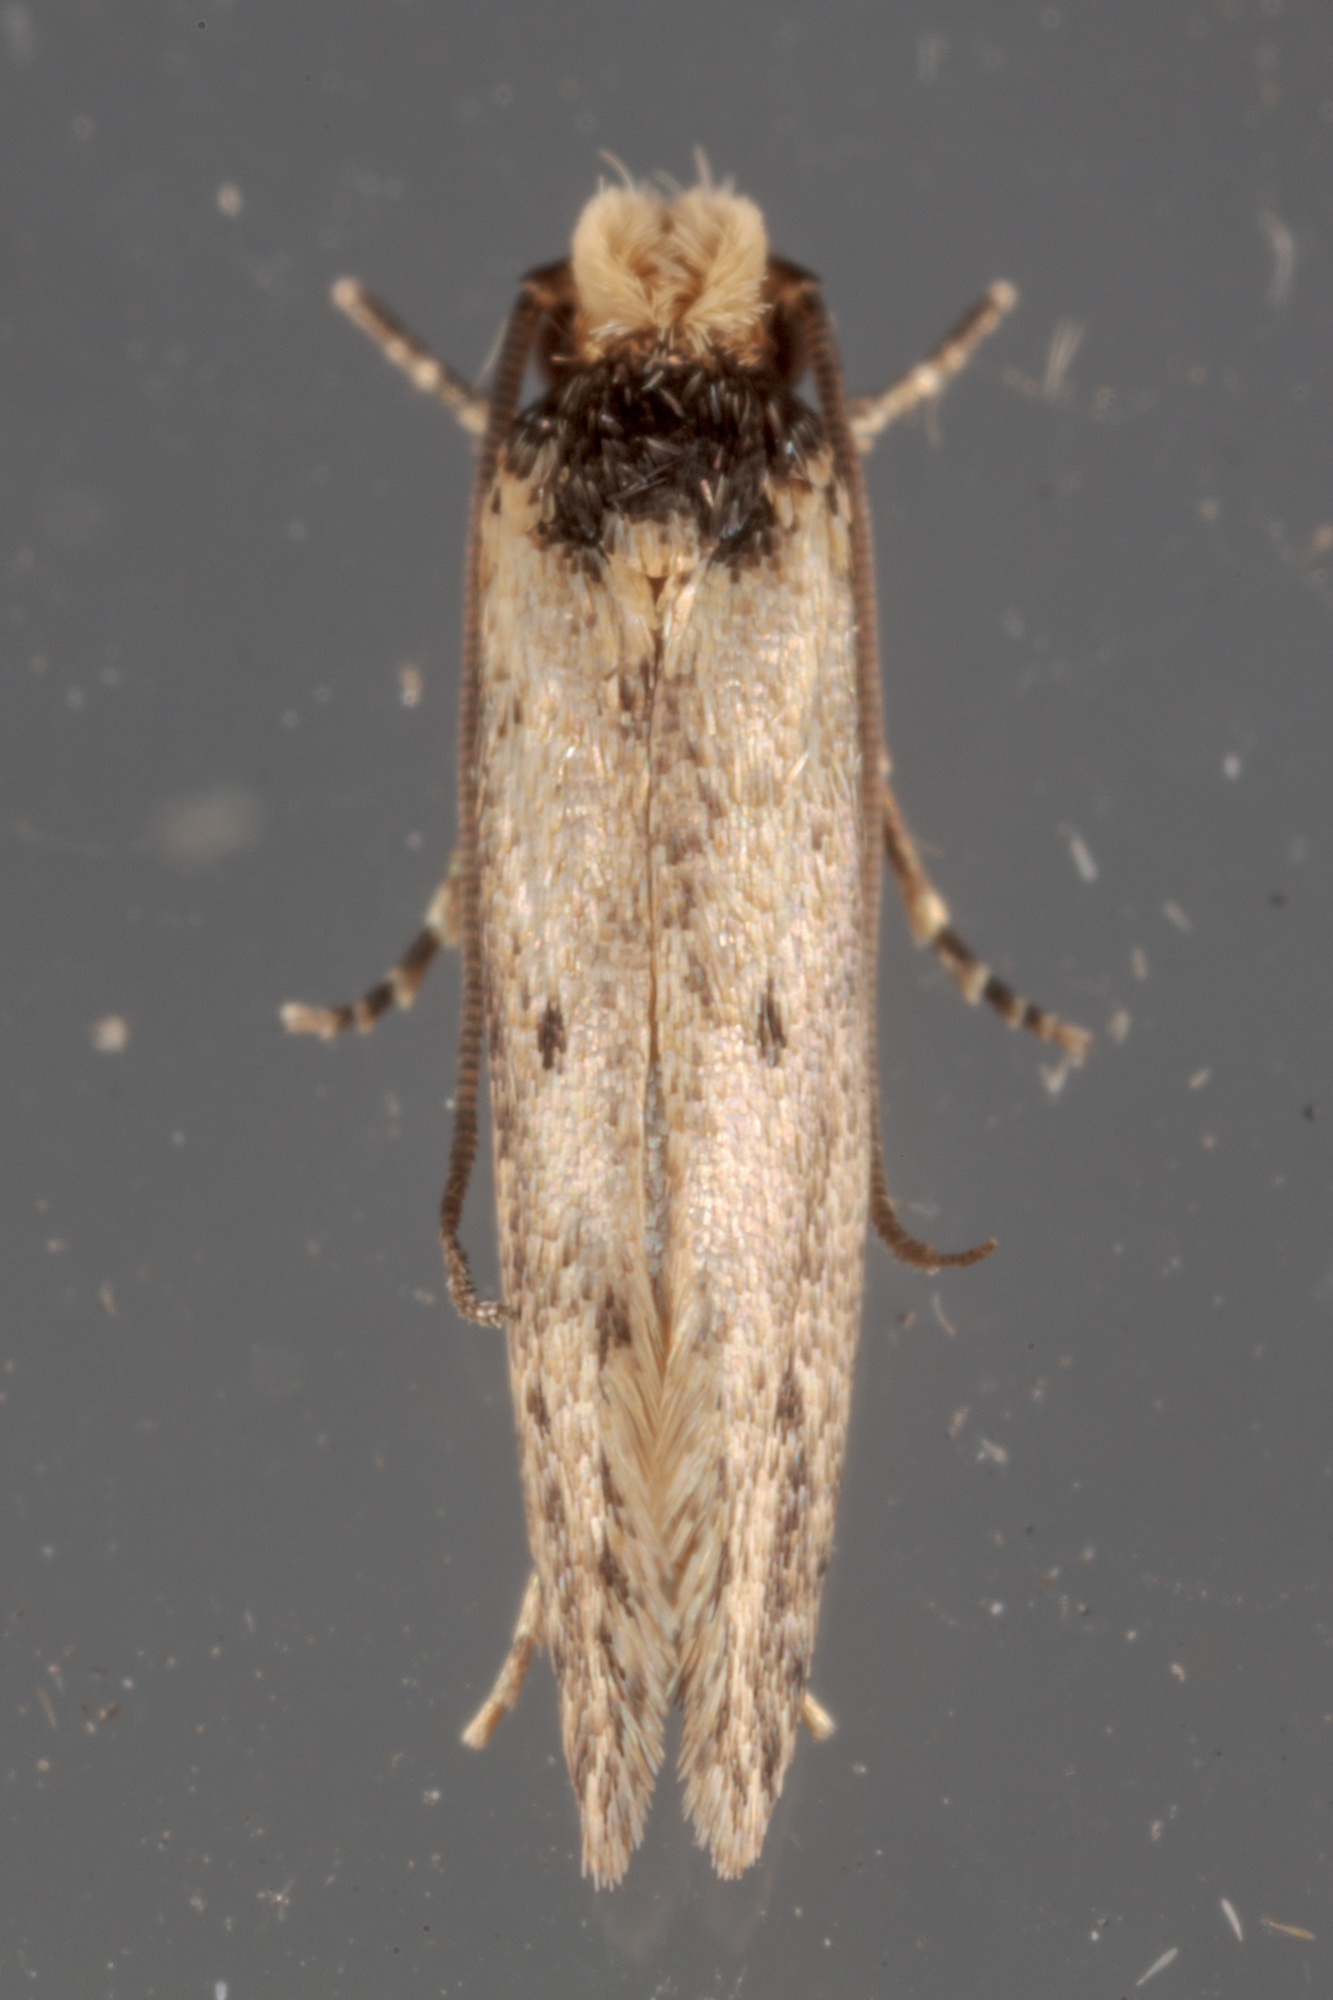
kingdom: Animalia
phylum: Arthropoda
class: Insecta
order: Lepidoptera
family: Tineidae
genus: Tinea
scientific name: Tinea apicimaculella
